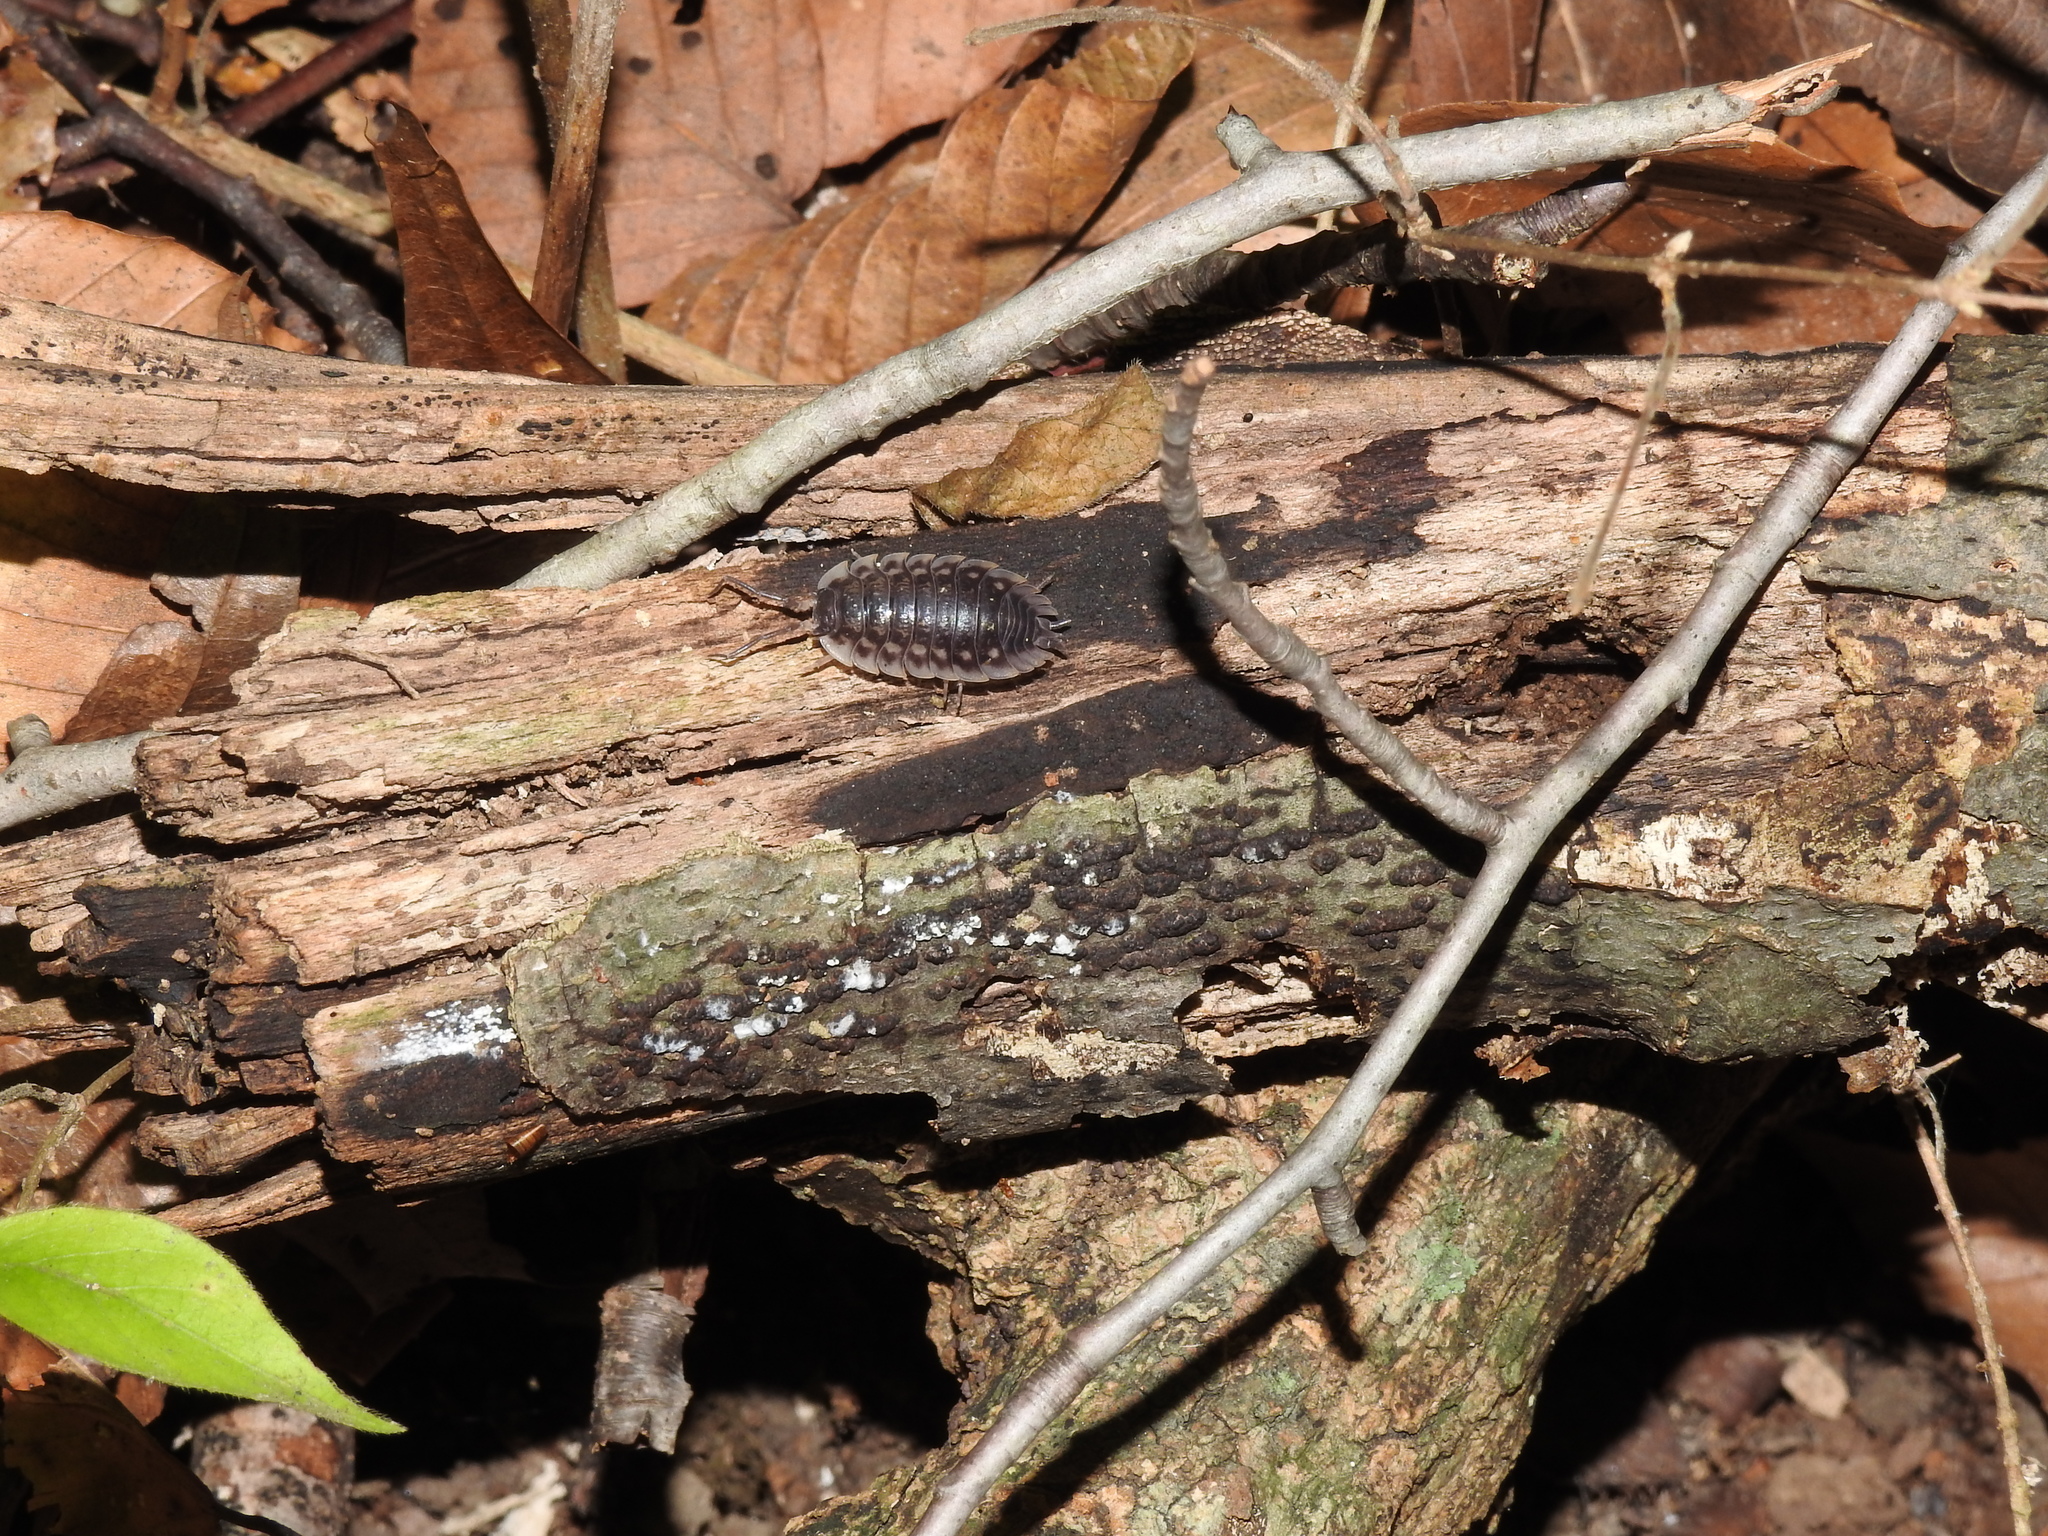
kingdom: Animalia
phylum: Arthropoda
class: Malacostraca
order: Isopoda
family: Oniscidae
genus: Oniscus
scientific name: Oniscus asellus
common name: Common shiny woodlouse
